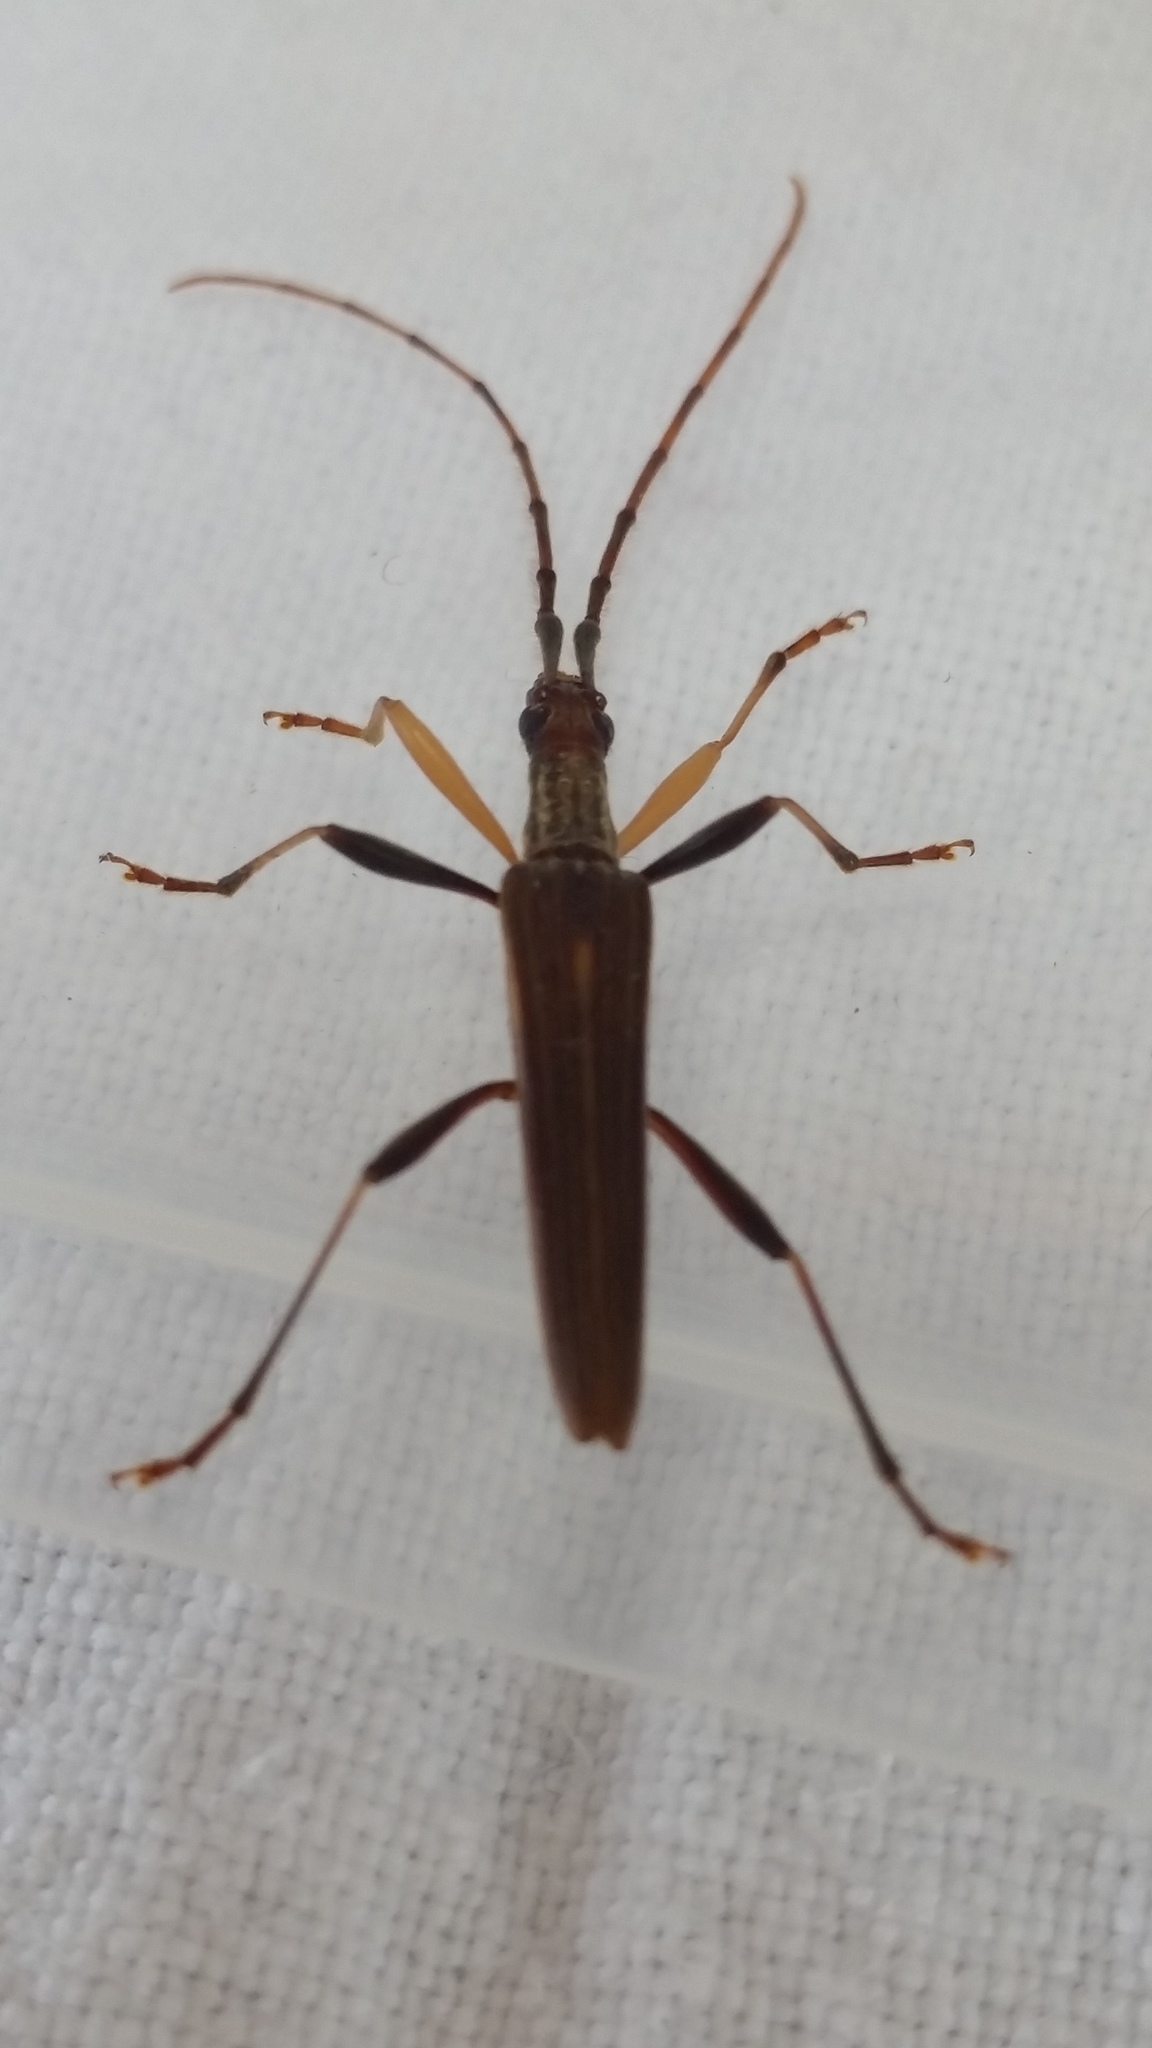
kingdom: Animalia
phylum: Arthropoda
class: Insecta
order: Coleoptera
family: Cerambycidae
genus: Stenopotes
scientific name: Stenopotes pallidus
